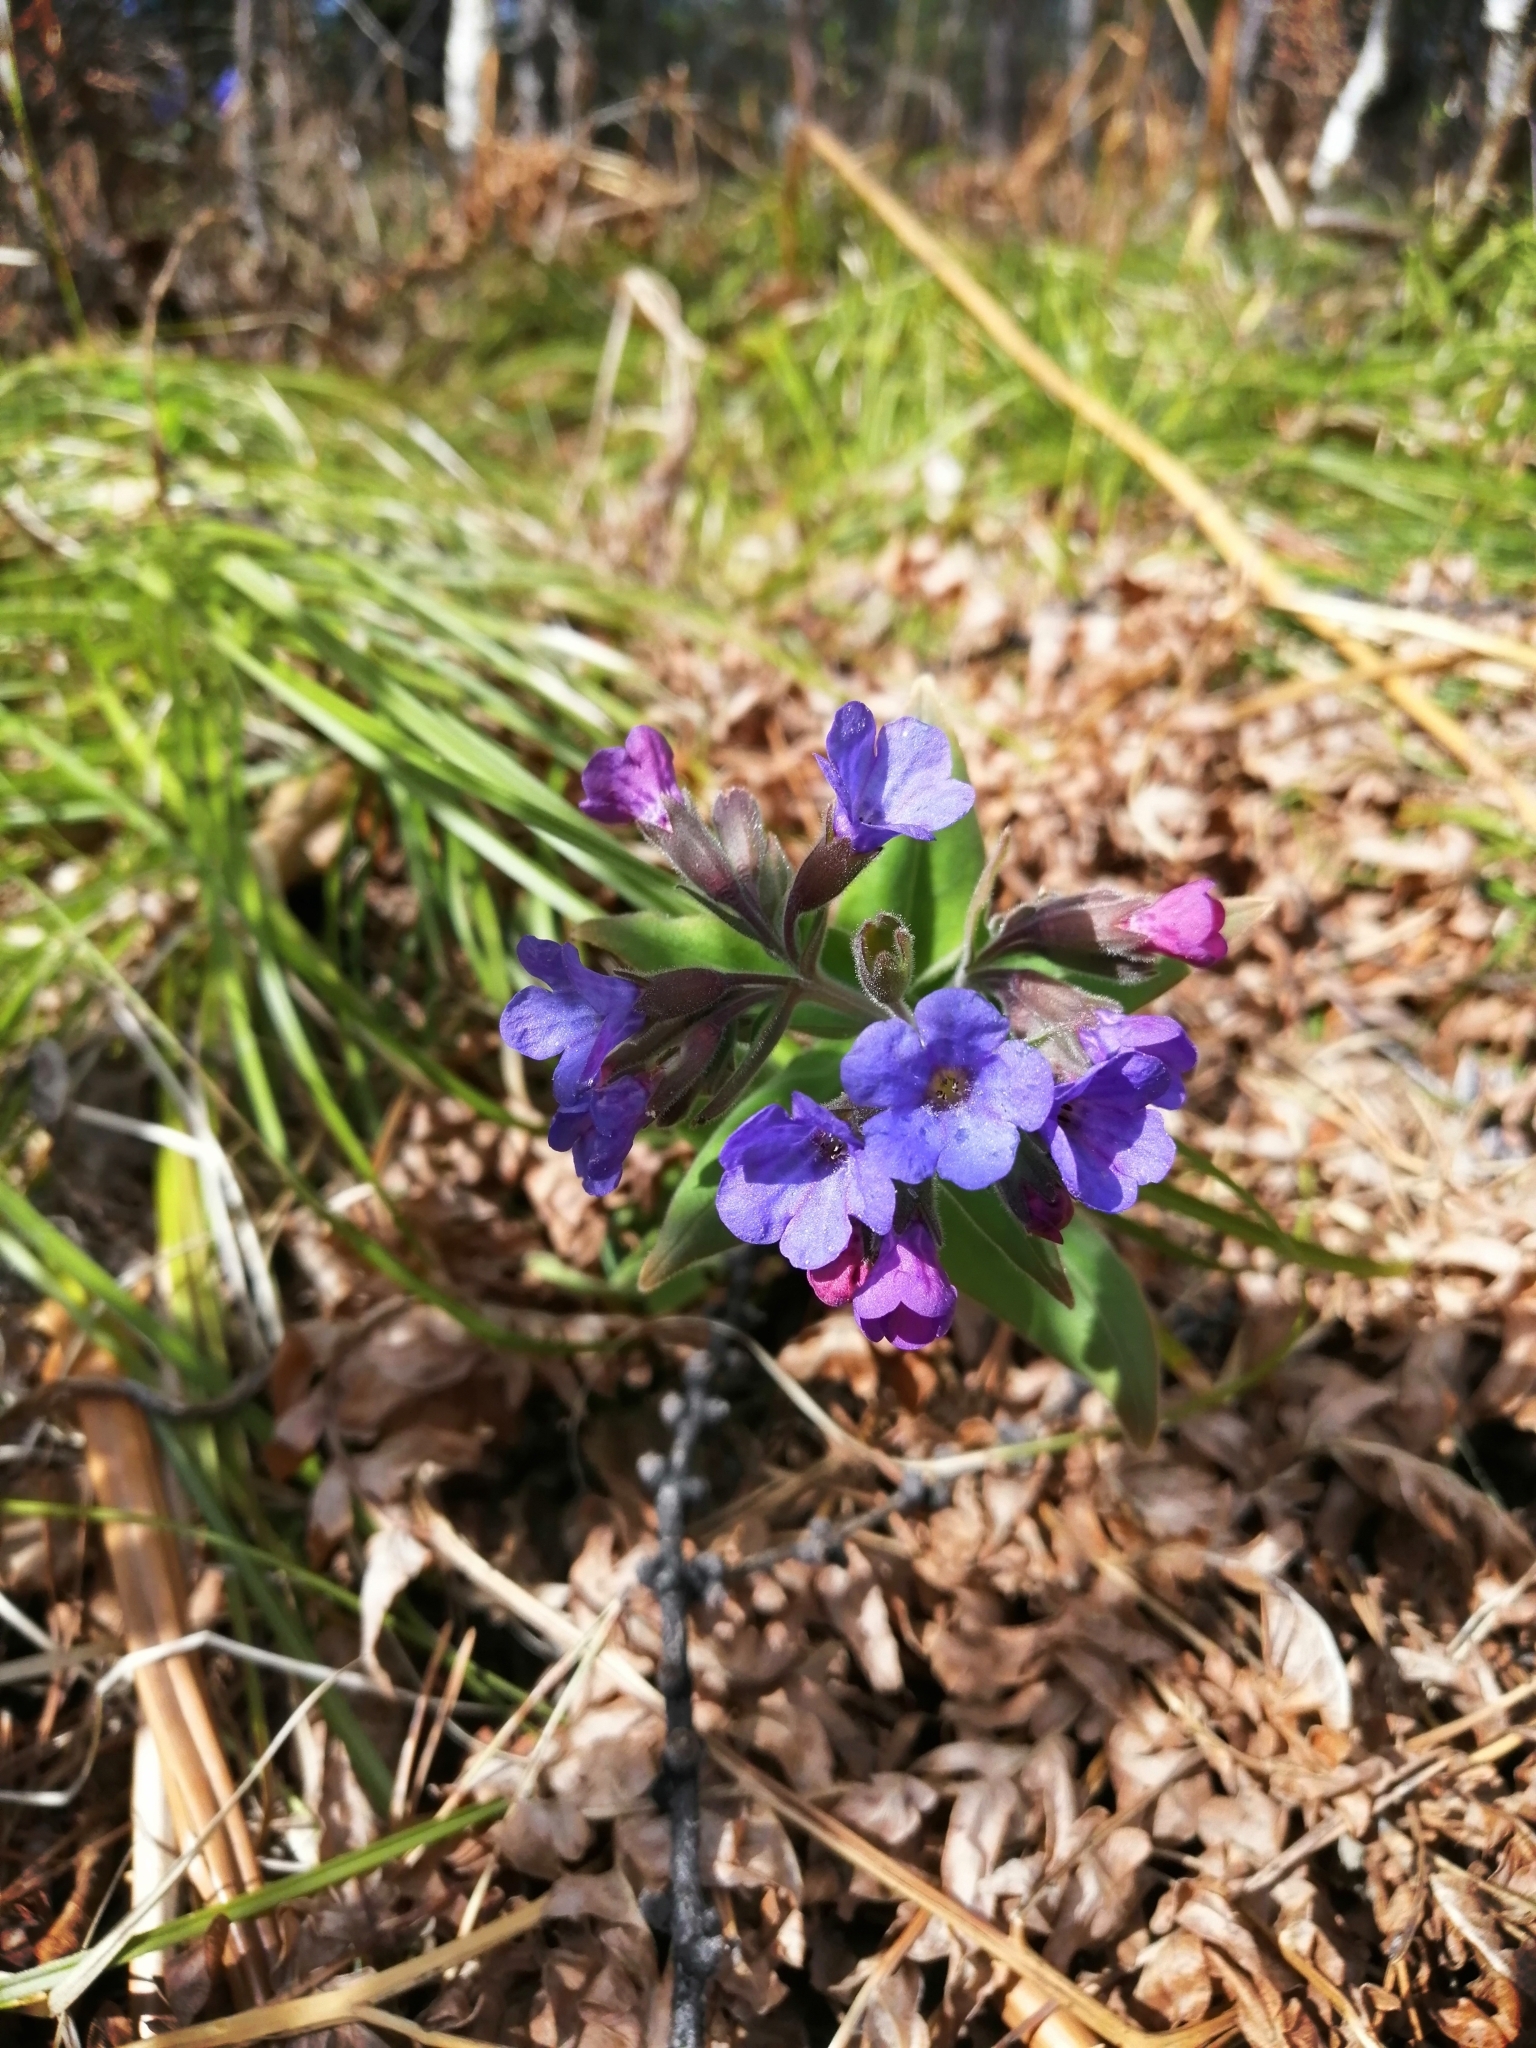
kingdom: Plantae
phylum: Tracheophyta
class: Magnoliopsida
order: Boraginales
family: Boraginaceae
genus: Pulmonaria
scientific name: Pulmonaria mollis
